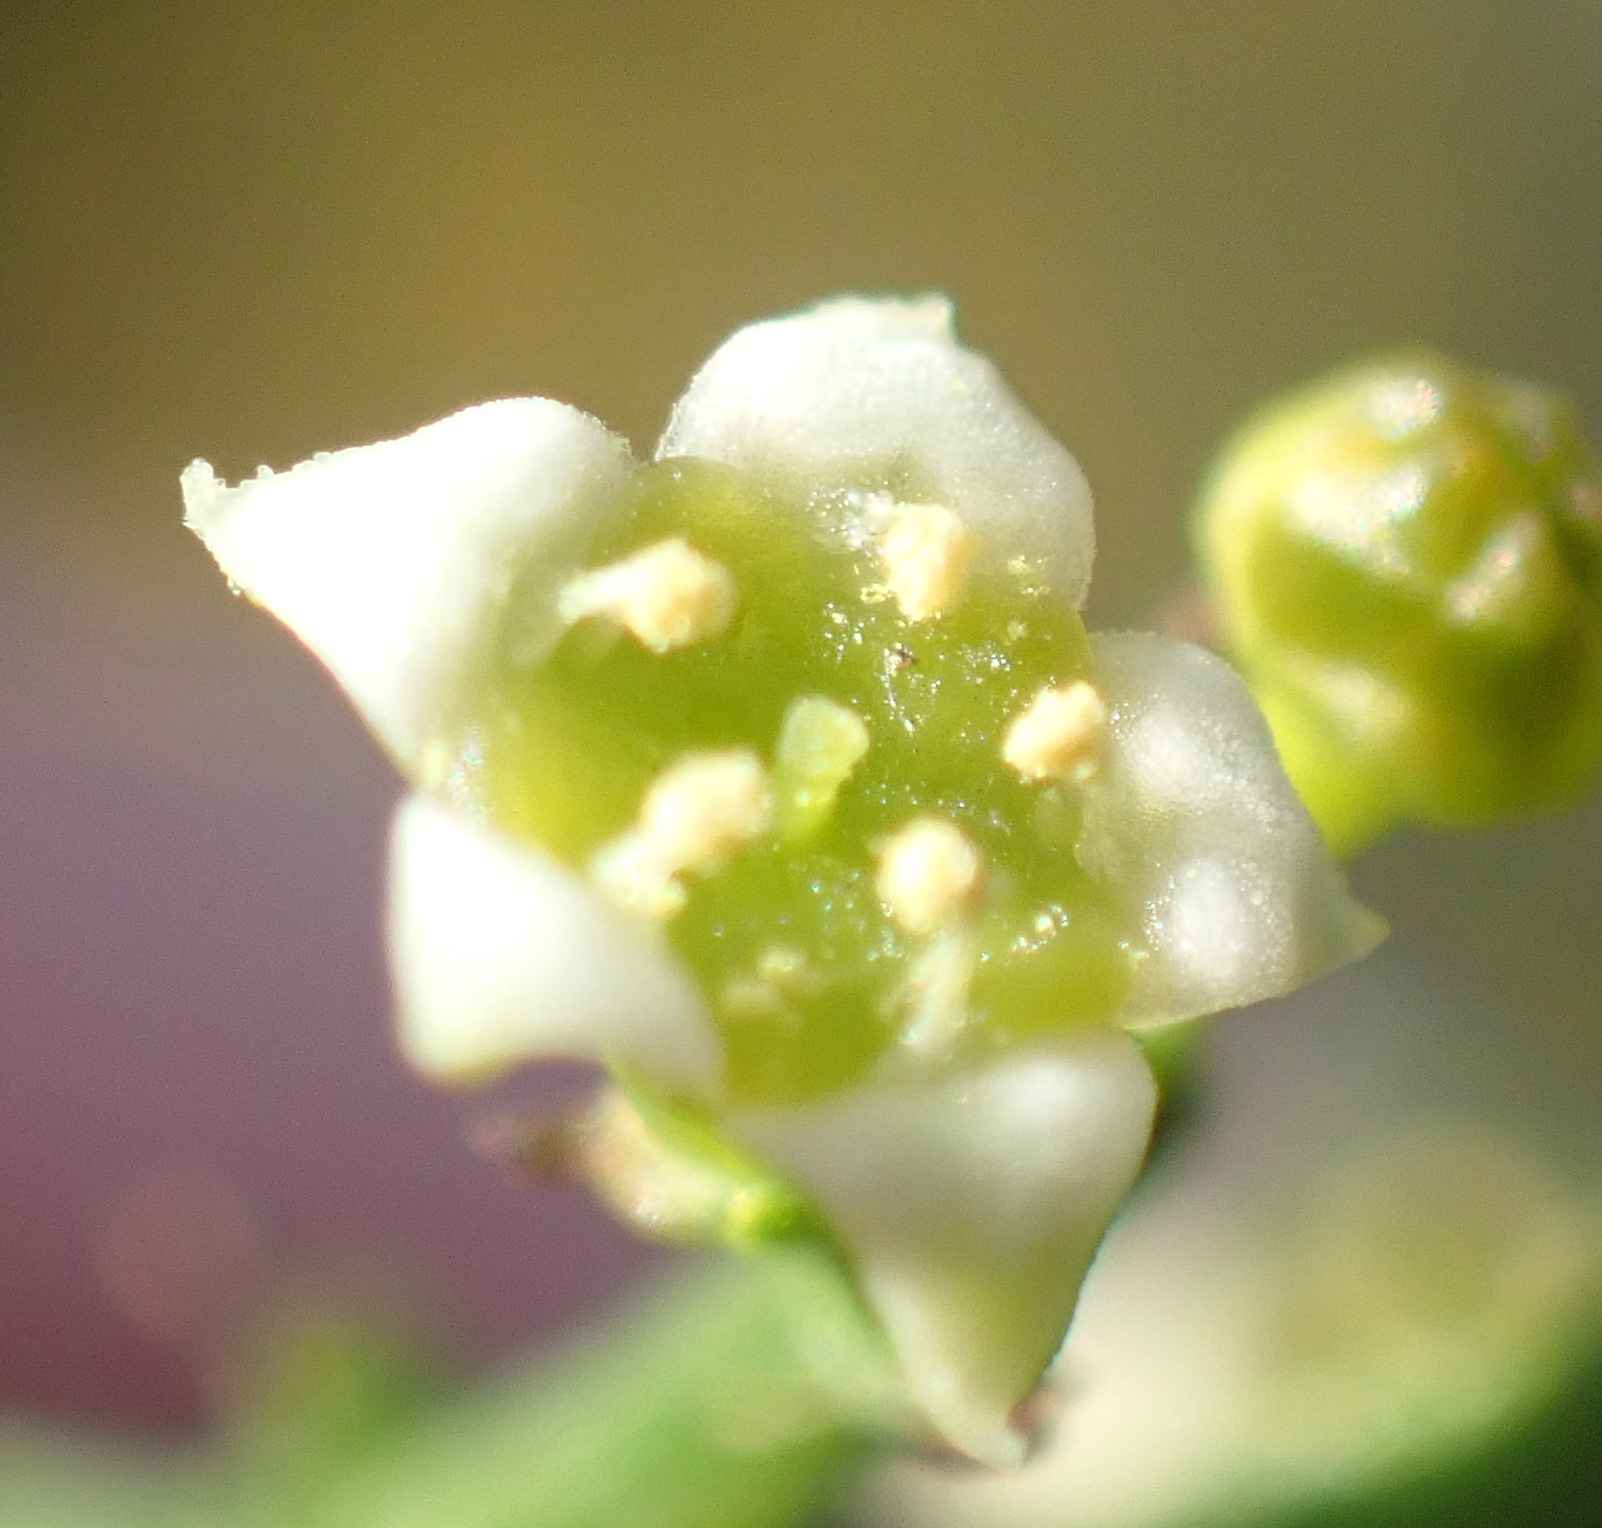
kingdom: Plantae
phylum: Tracheophyta
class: Magnoliopsida
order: Santalales
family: Thesiaceae
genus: Thesium
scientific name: Thesium galioides
